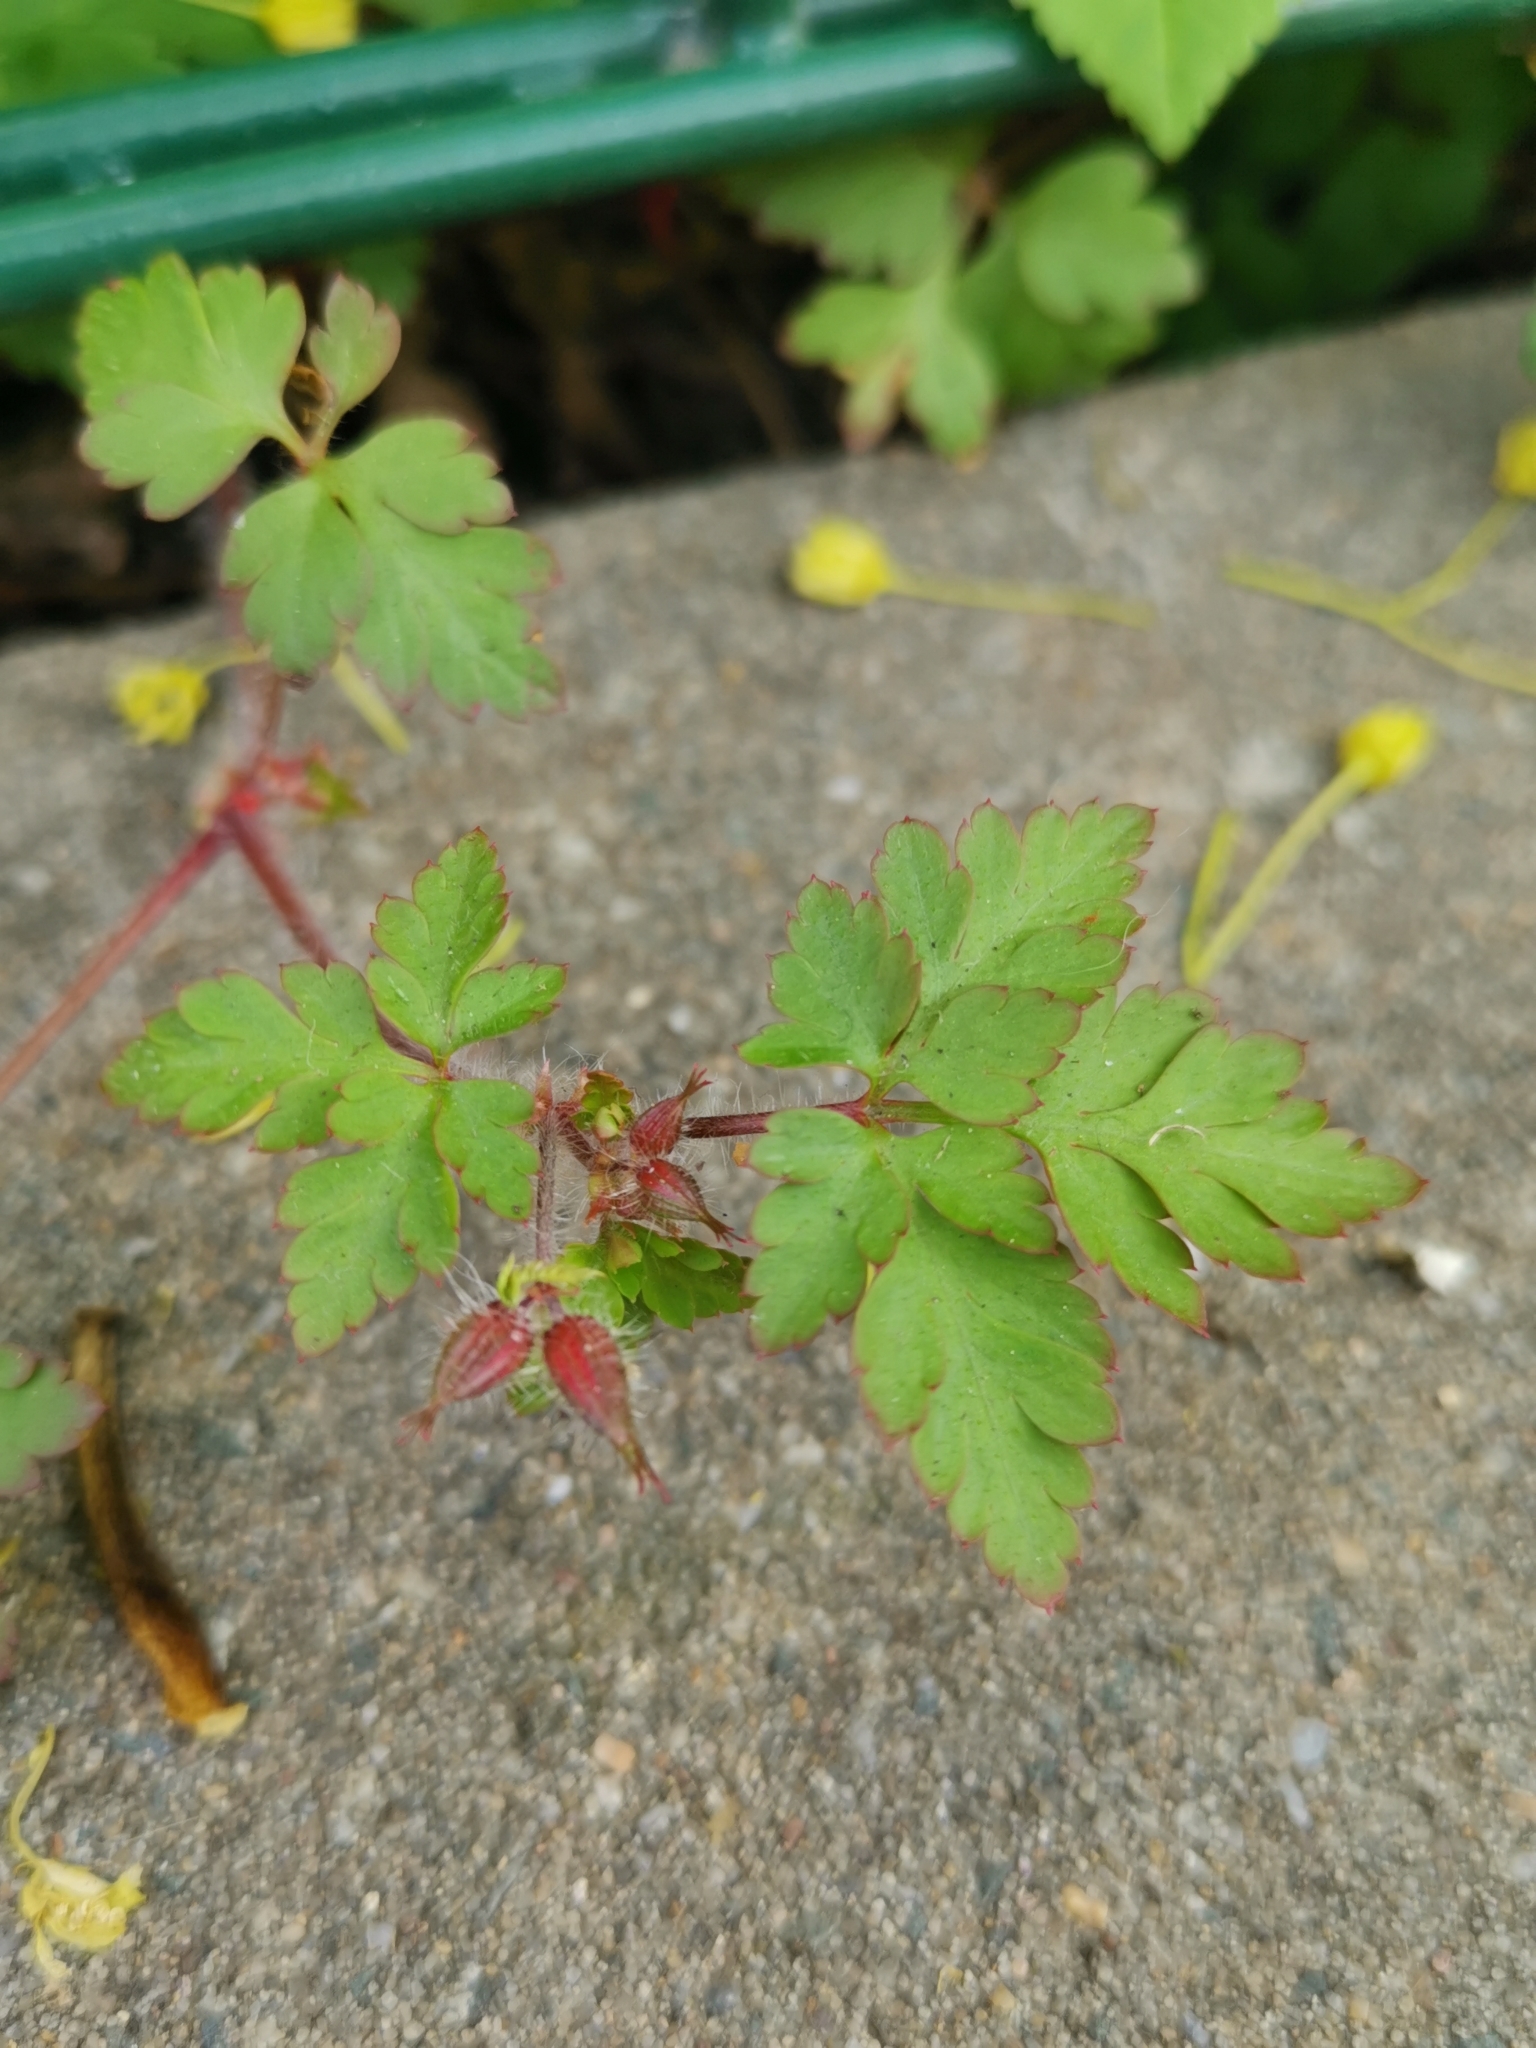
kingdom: Plantae
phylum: Tracheophyta
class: Magnoliopsida
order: Geraniales
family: Geraniaceae
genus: Geranium
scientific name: Geranium robertianum
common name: Herb-robert
